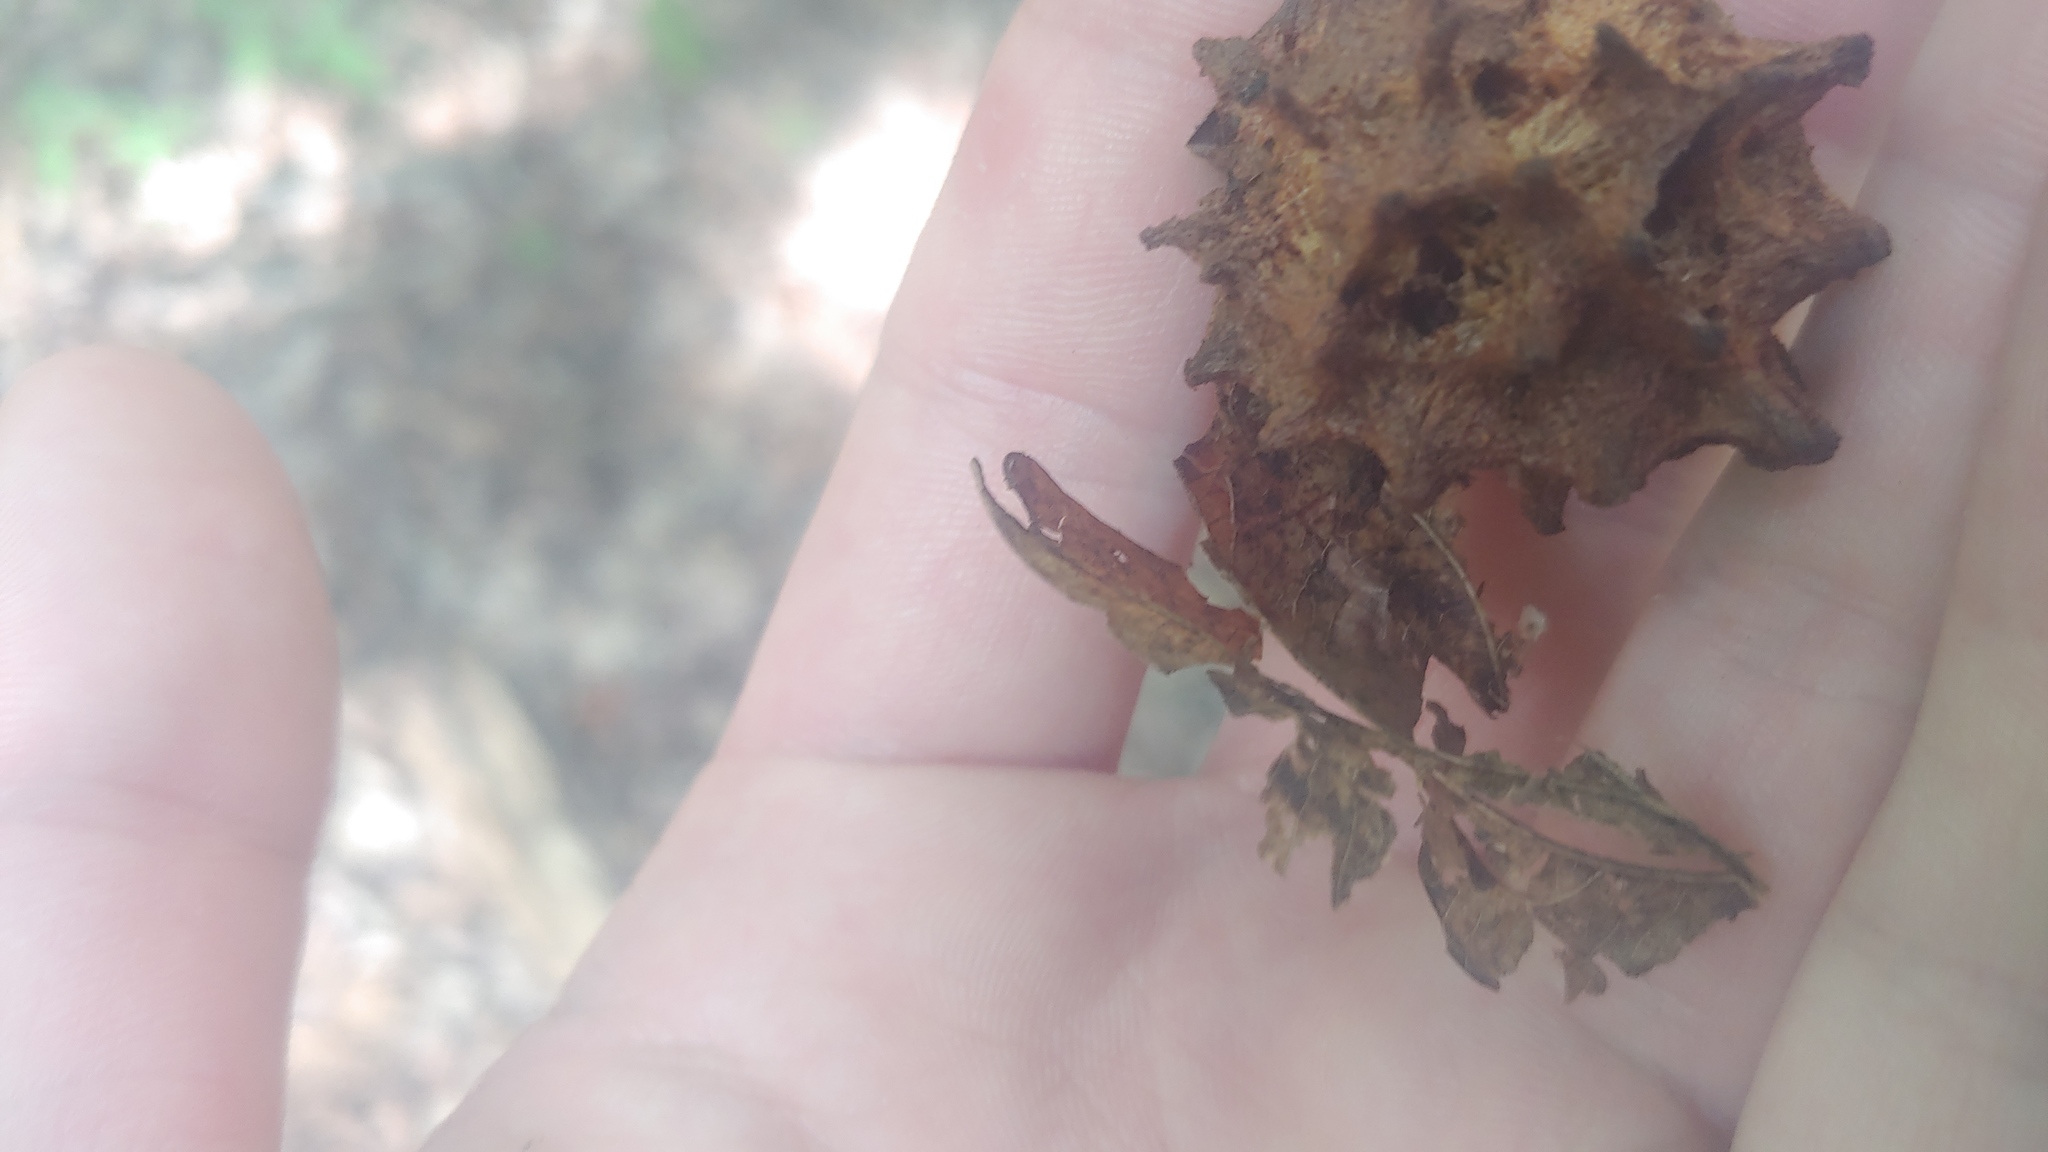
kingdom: Animalia
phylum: Arthropoda
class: Insecta
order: Hymenoptera
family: Cynipidae
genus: Callirhytis
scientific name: Callirhytis
